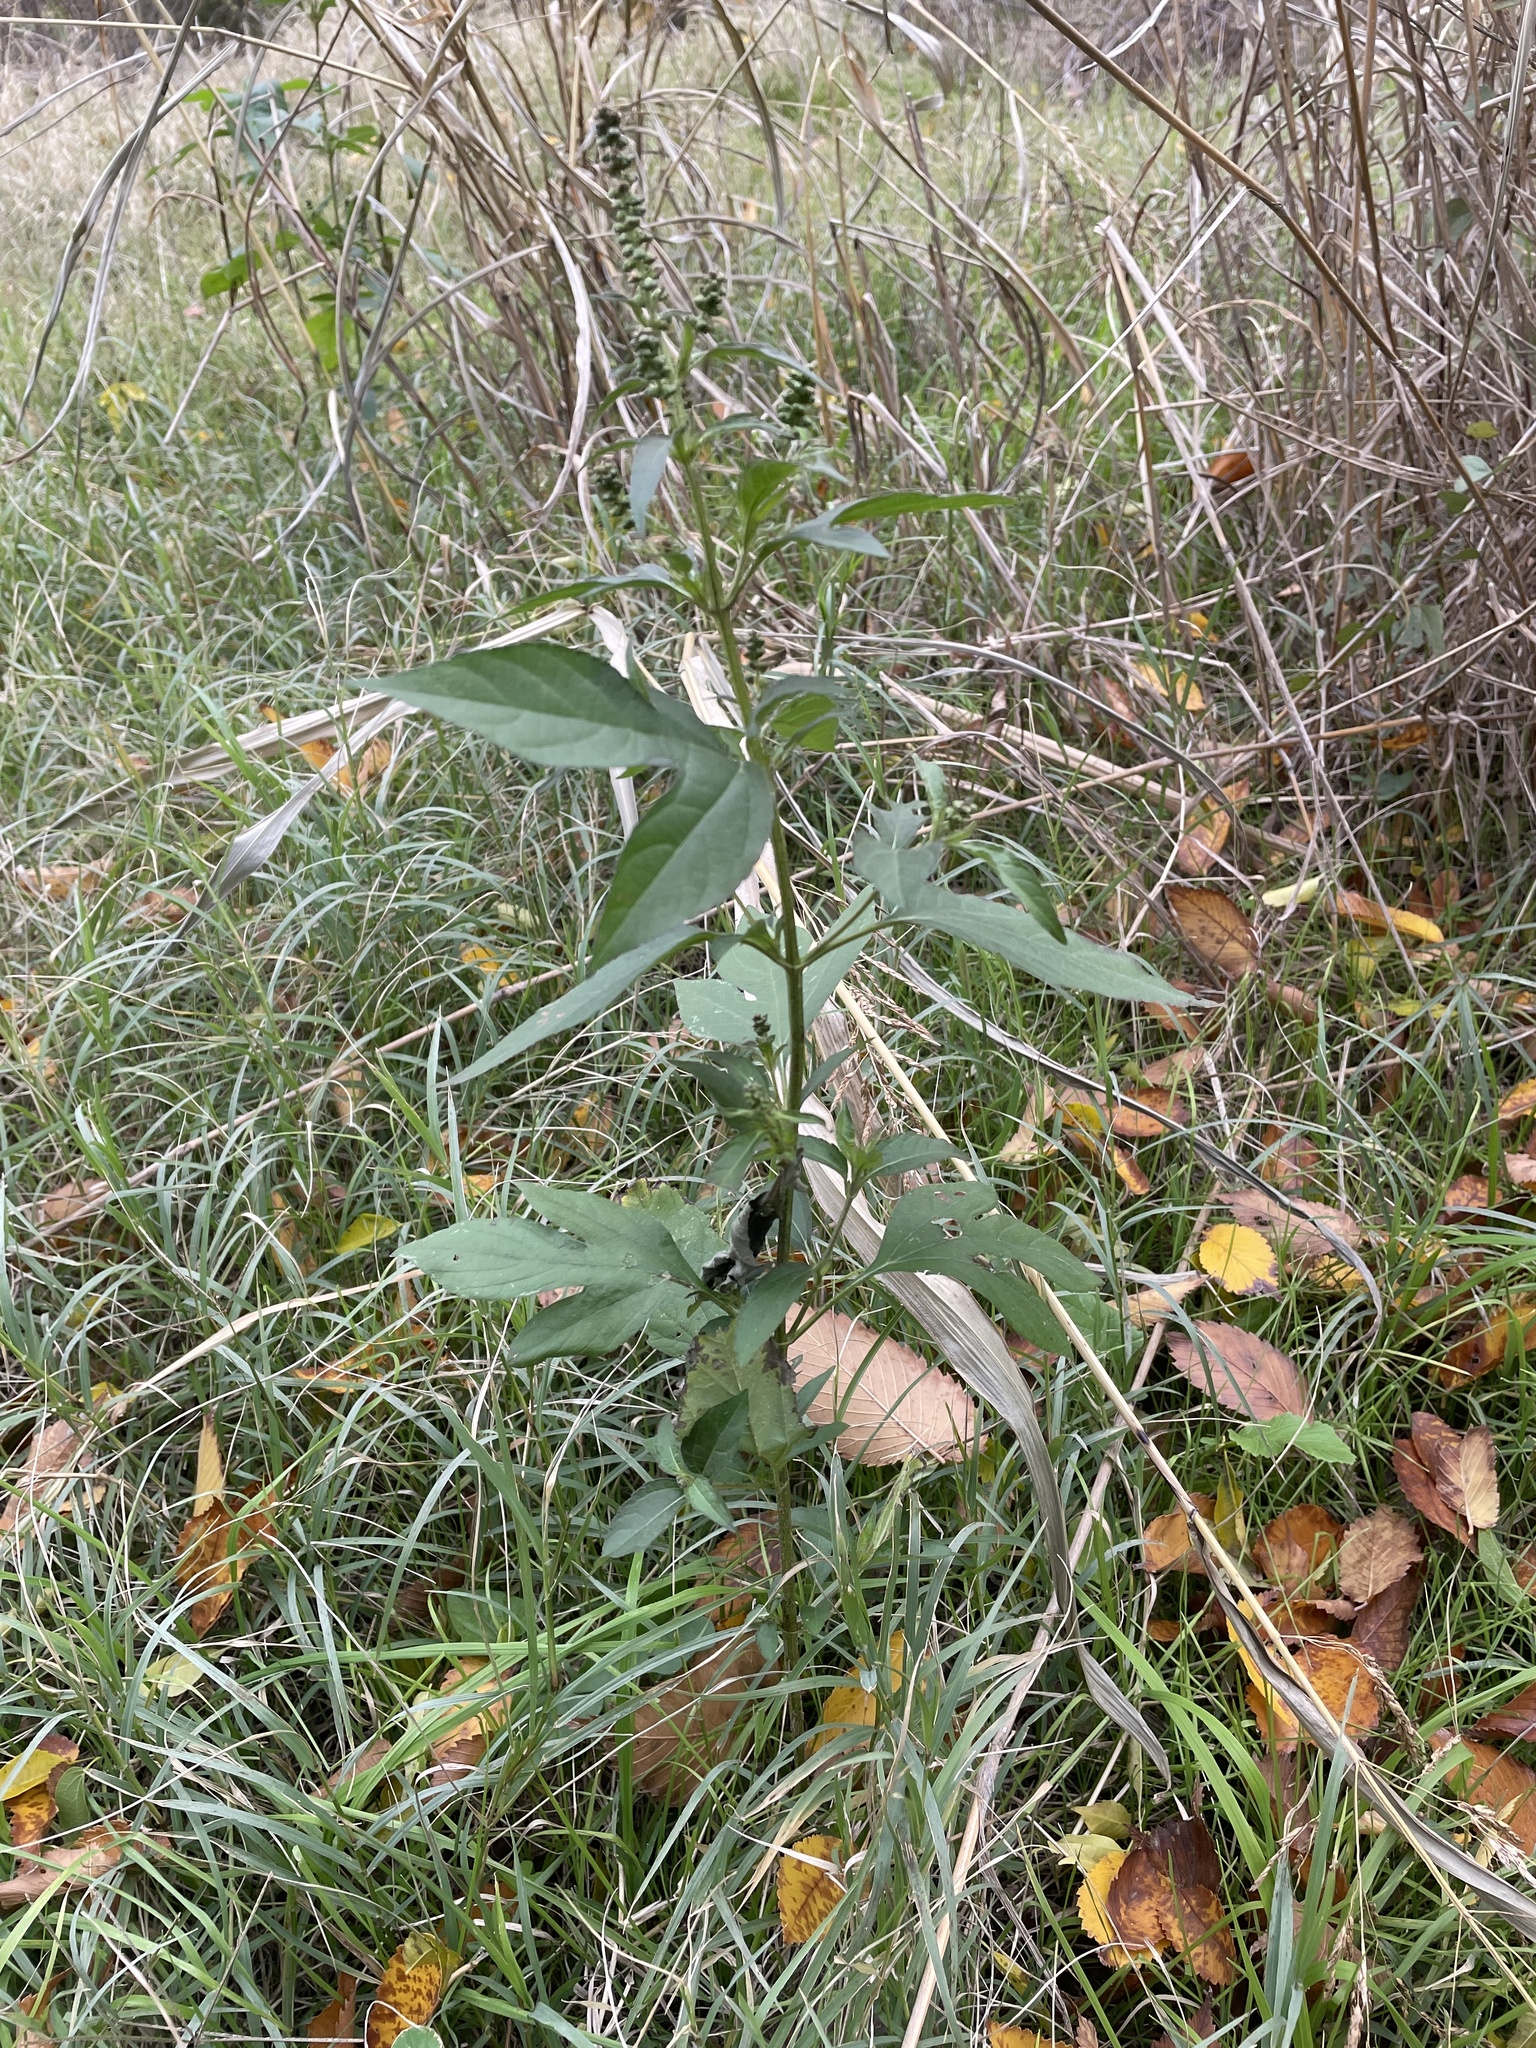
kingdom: Plantae
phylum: Tracheophyta
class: Magnoliopsida
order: Asterales
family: Asteraceae
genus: Ambrosia
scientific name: Ambrosia trifida
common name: Giant ragweed
